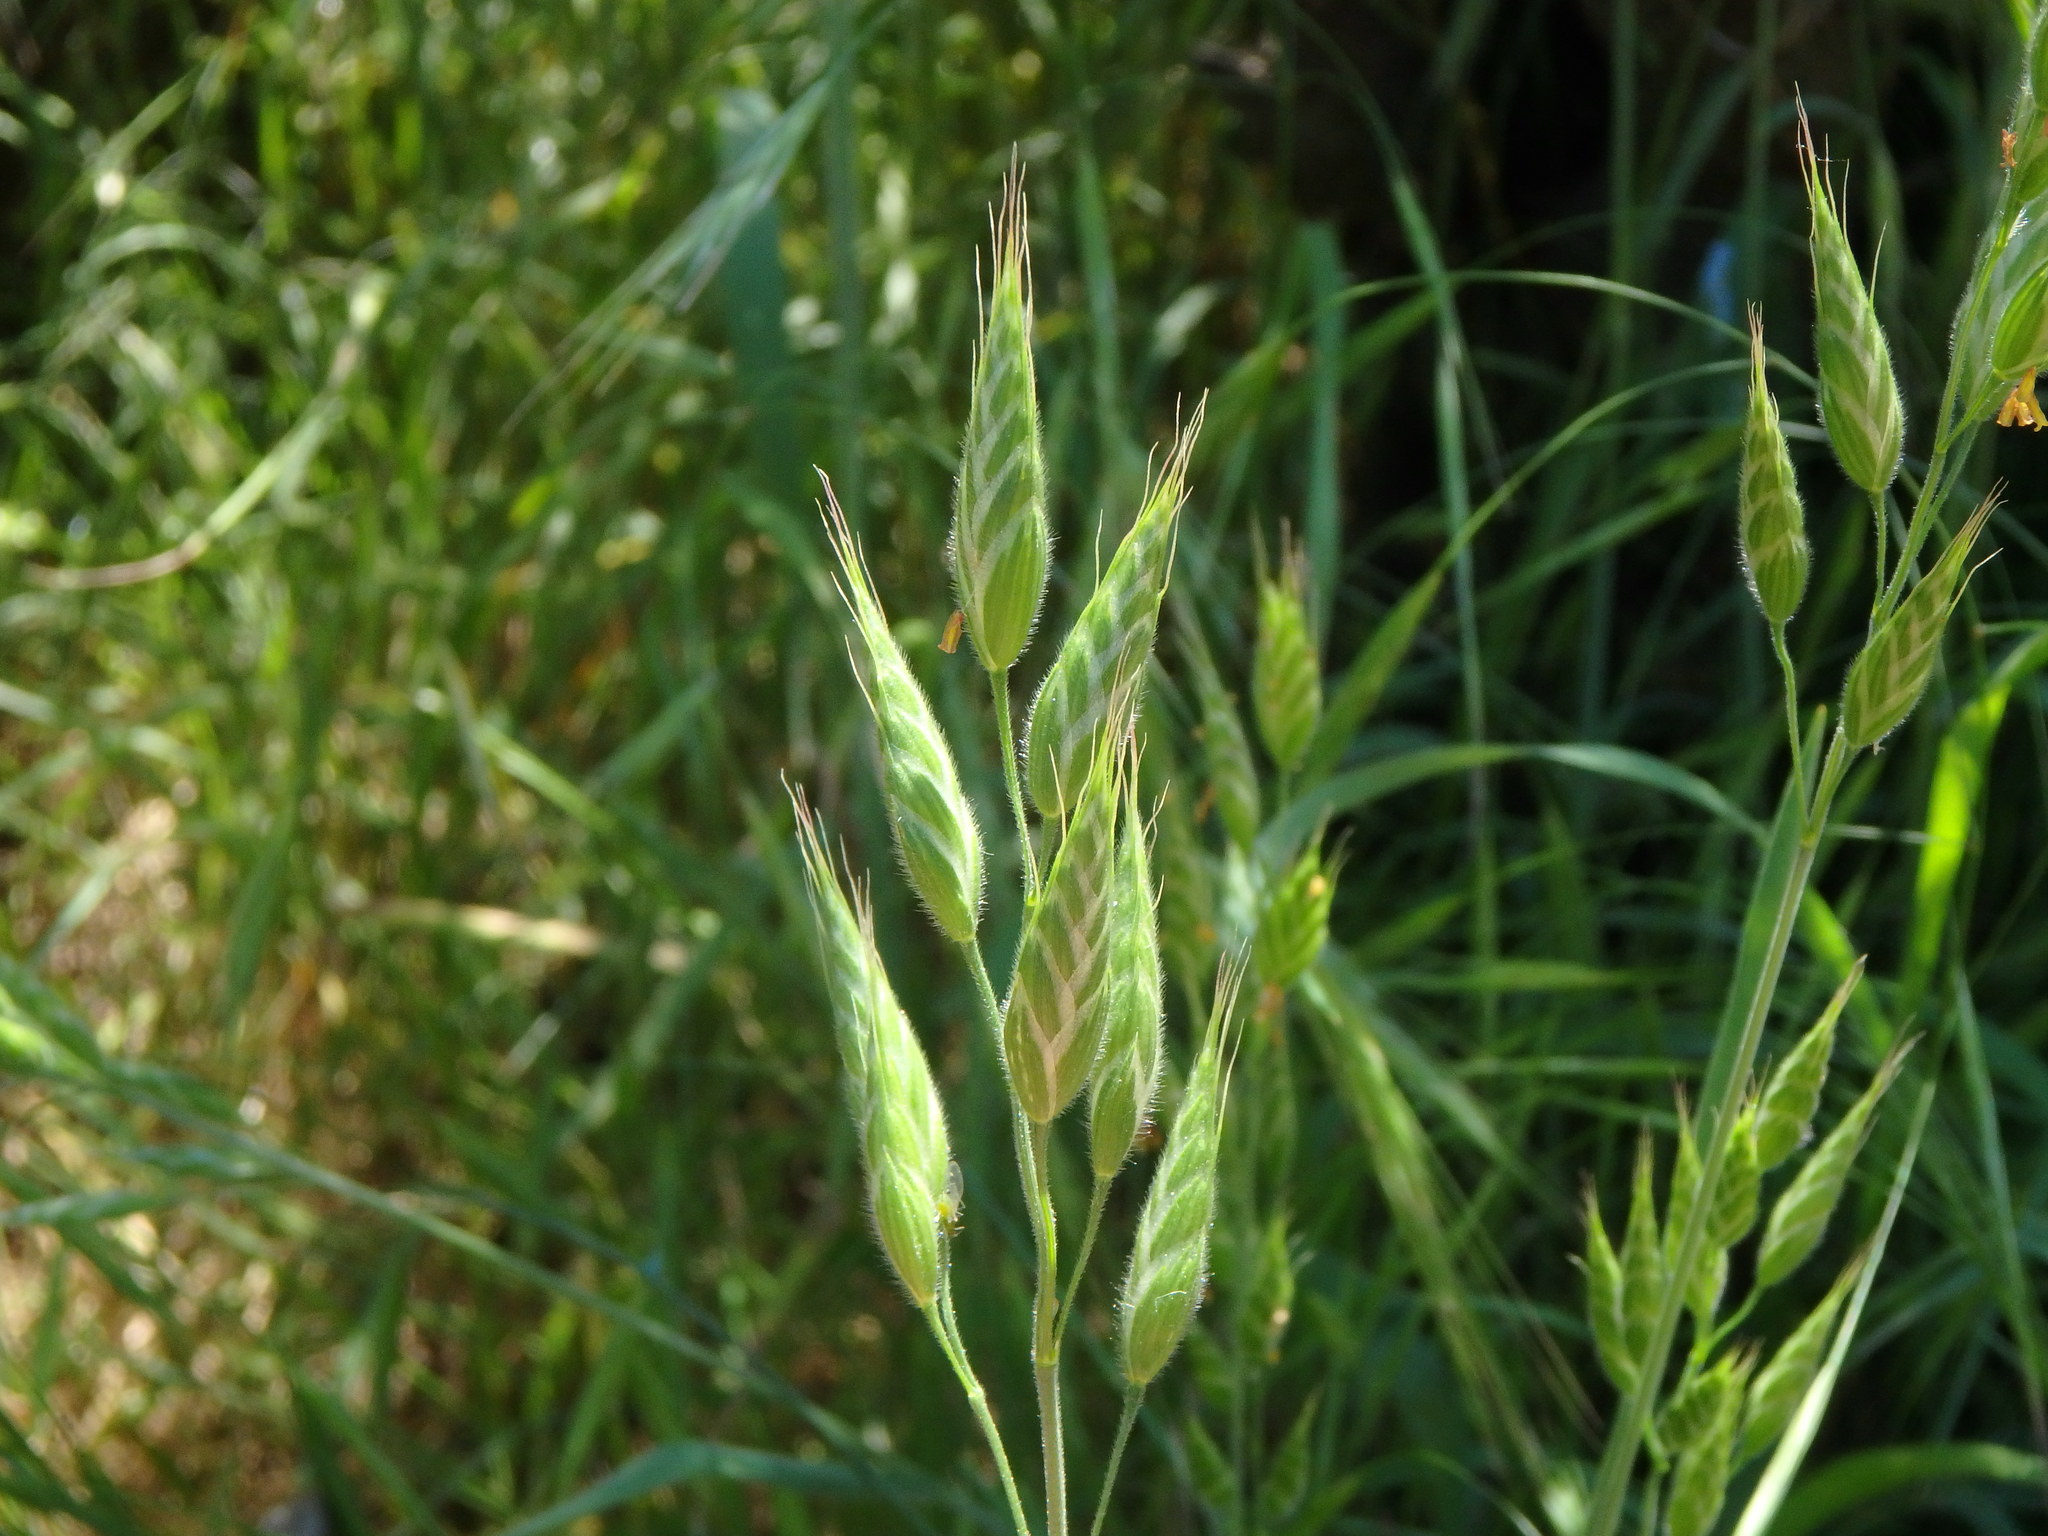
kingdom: Plantae
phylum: Tracheophyta
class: Liliopsida
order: Poales
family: Poaceae
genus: Bromus
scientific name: Bromus hordeaceus
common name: Soft brome
